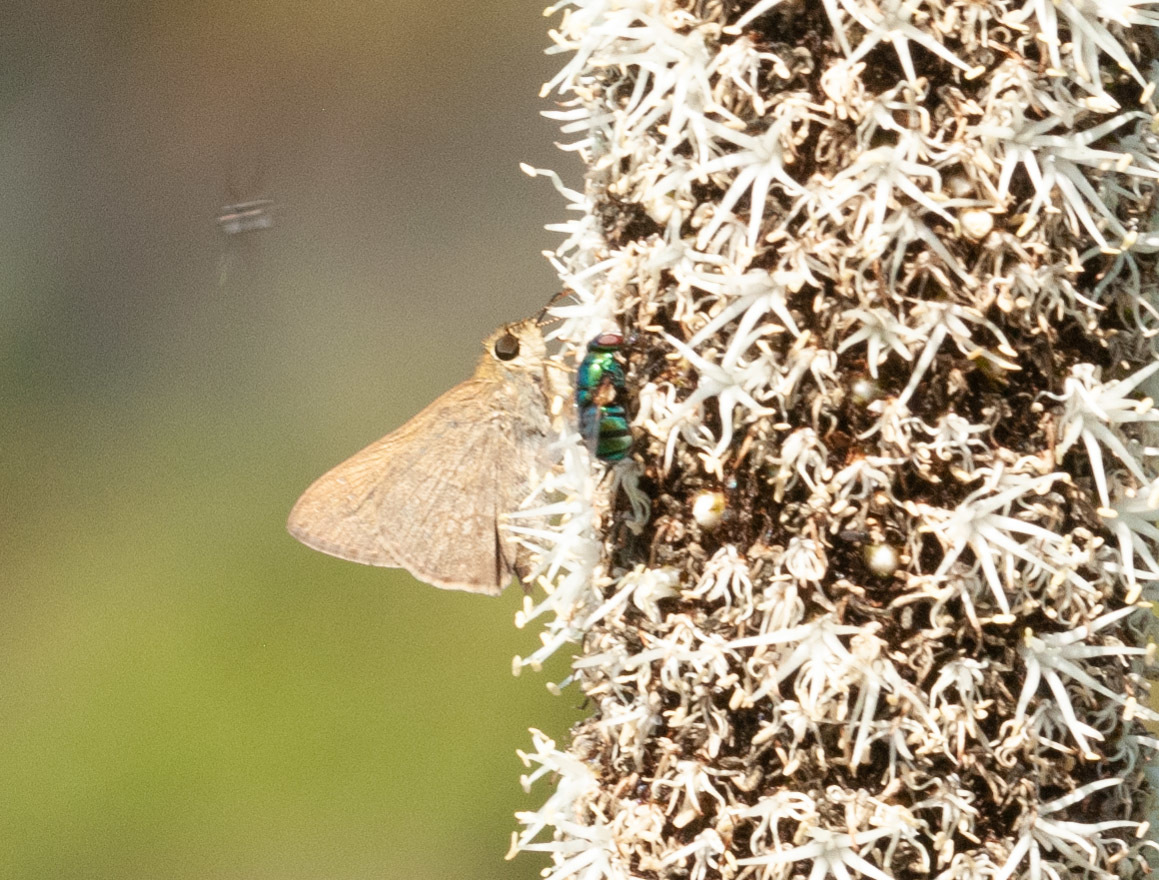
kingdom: Animalia
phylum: Arthropoda
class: Insecta
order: Lepidoptera
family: Hesperiidae
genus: Toxidia
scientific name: Toxidia
